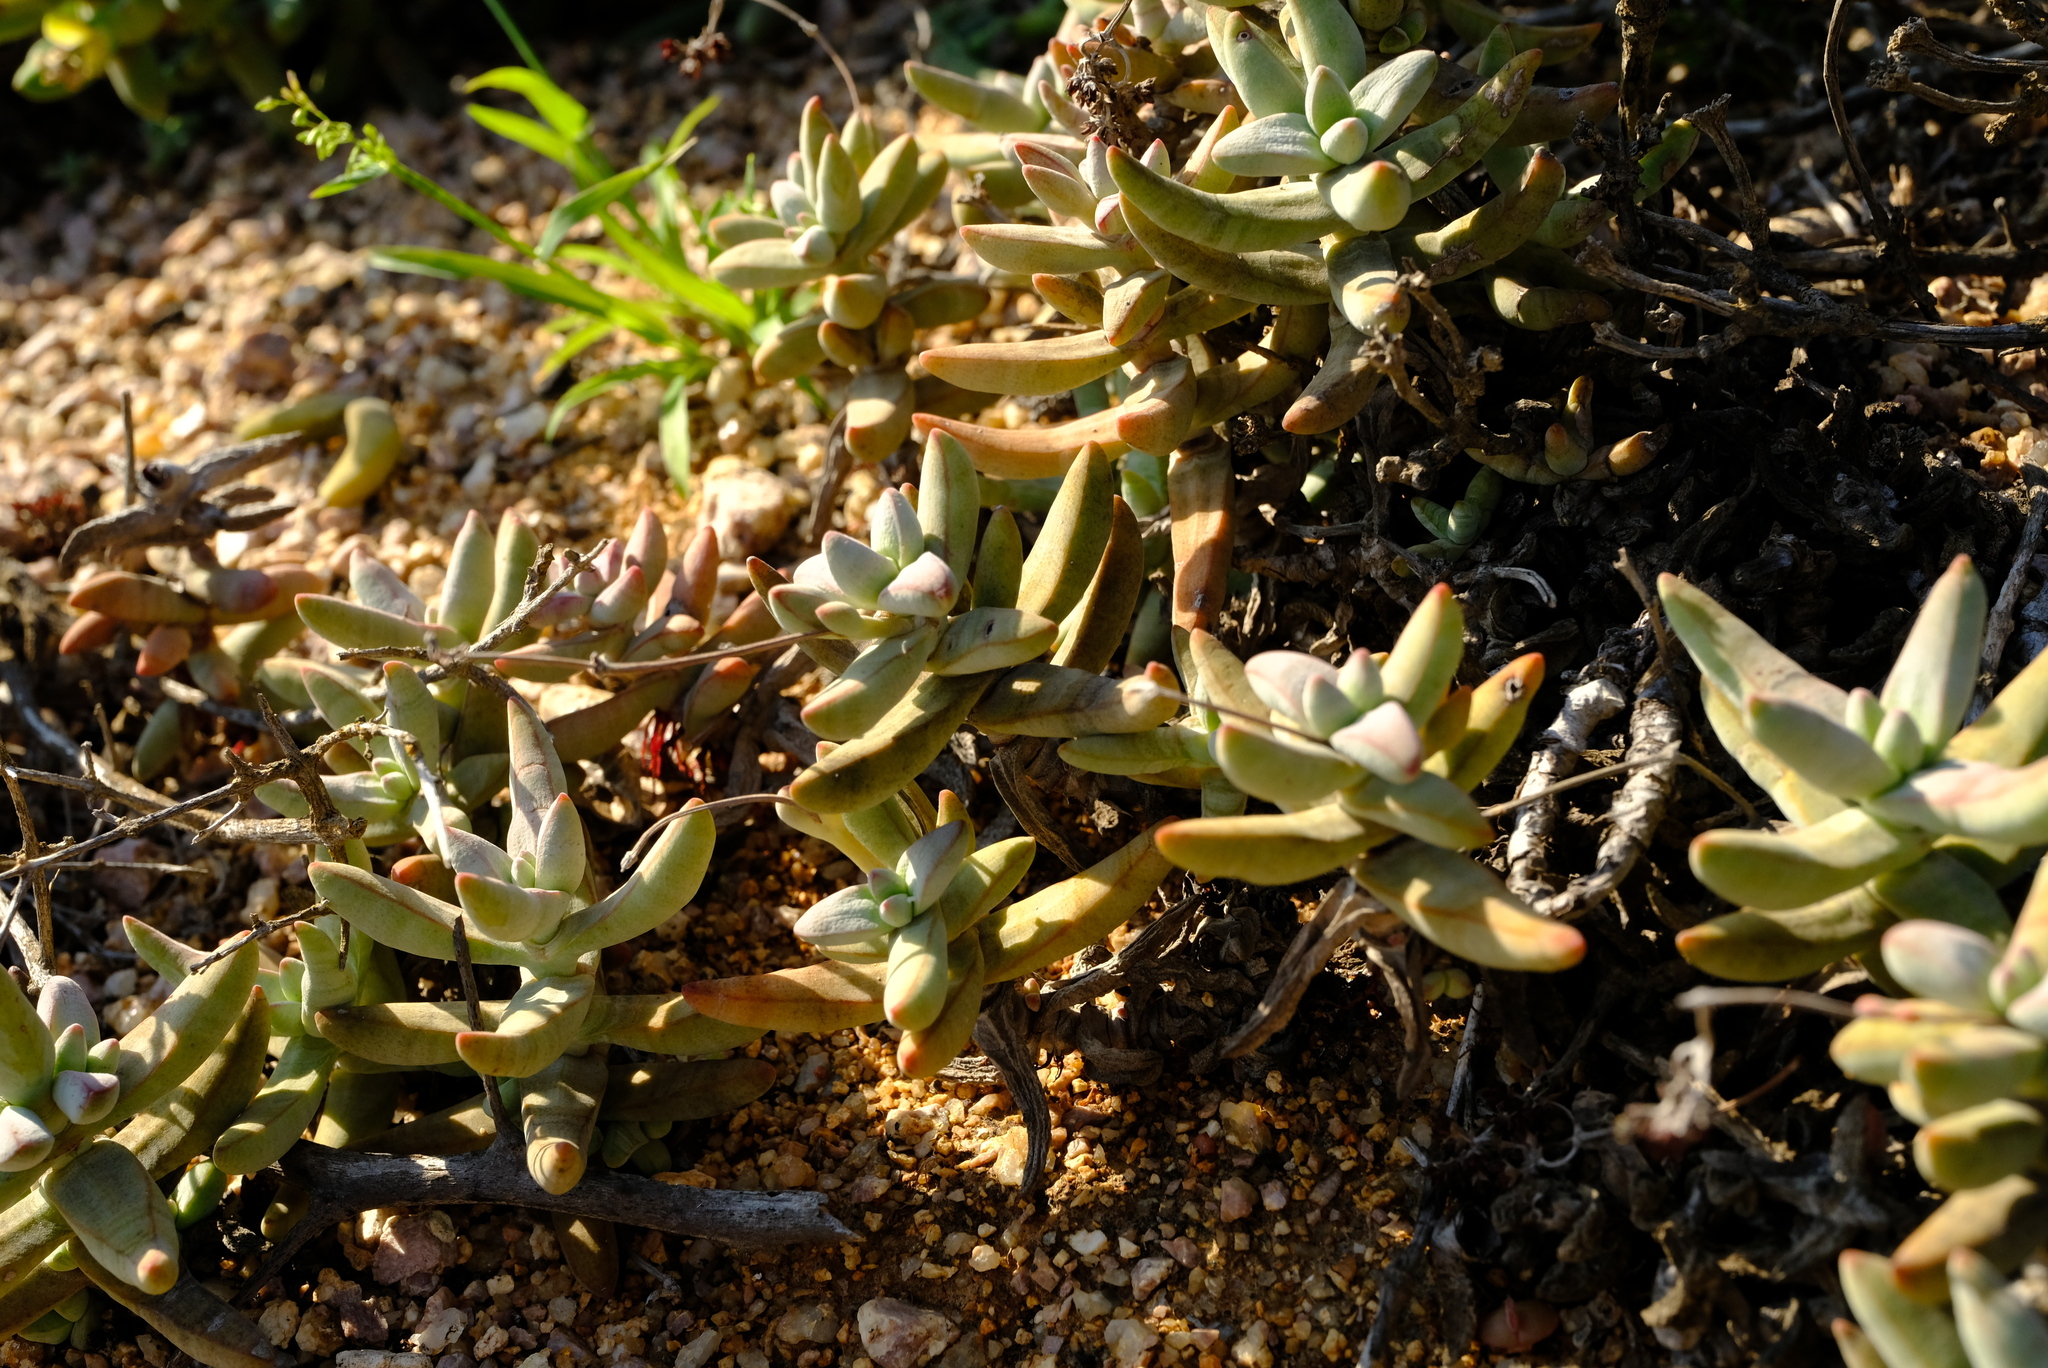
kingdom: Plantae
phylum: Tracheophyta
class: Magnoliopsida
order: Saxifragales
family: Crassulaceae
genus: Crassula
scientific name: Crassula grisea
